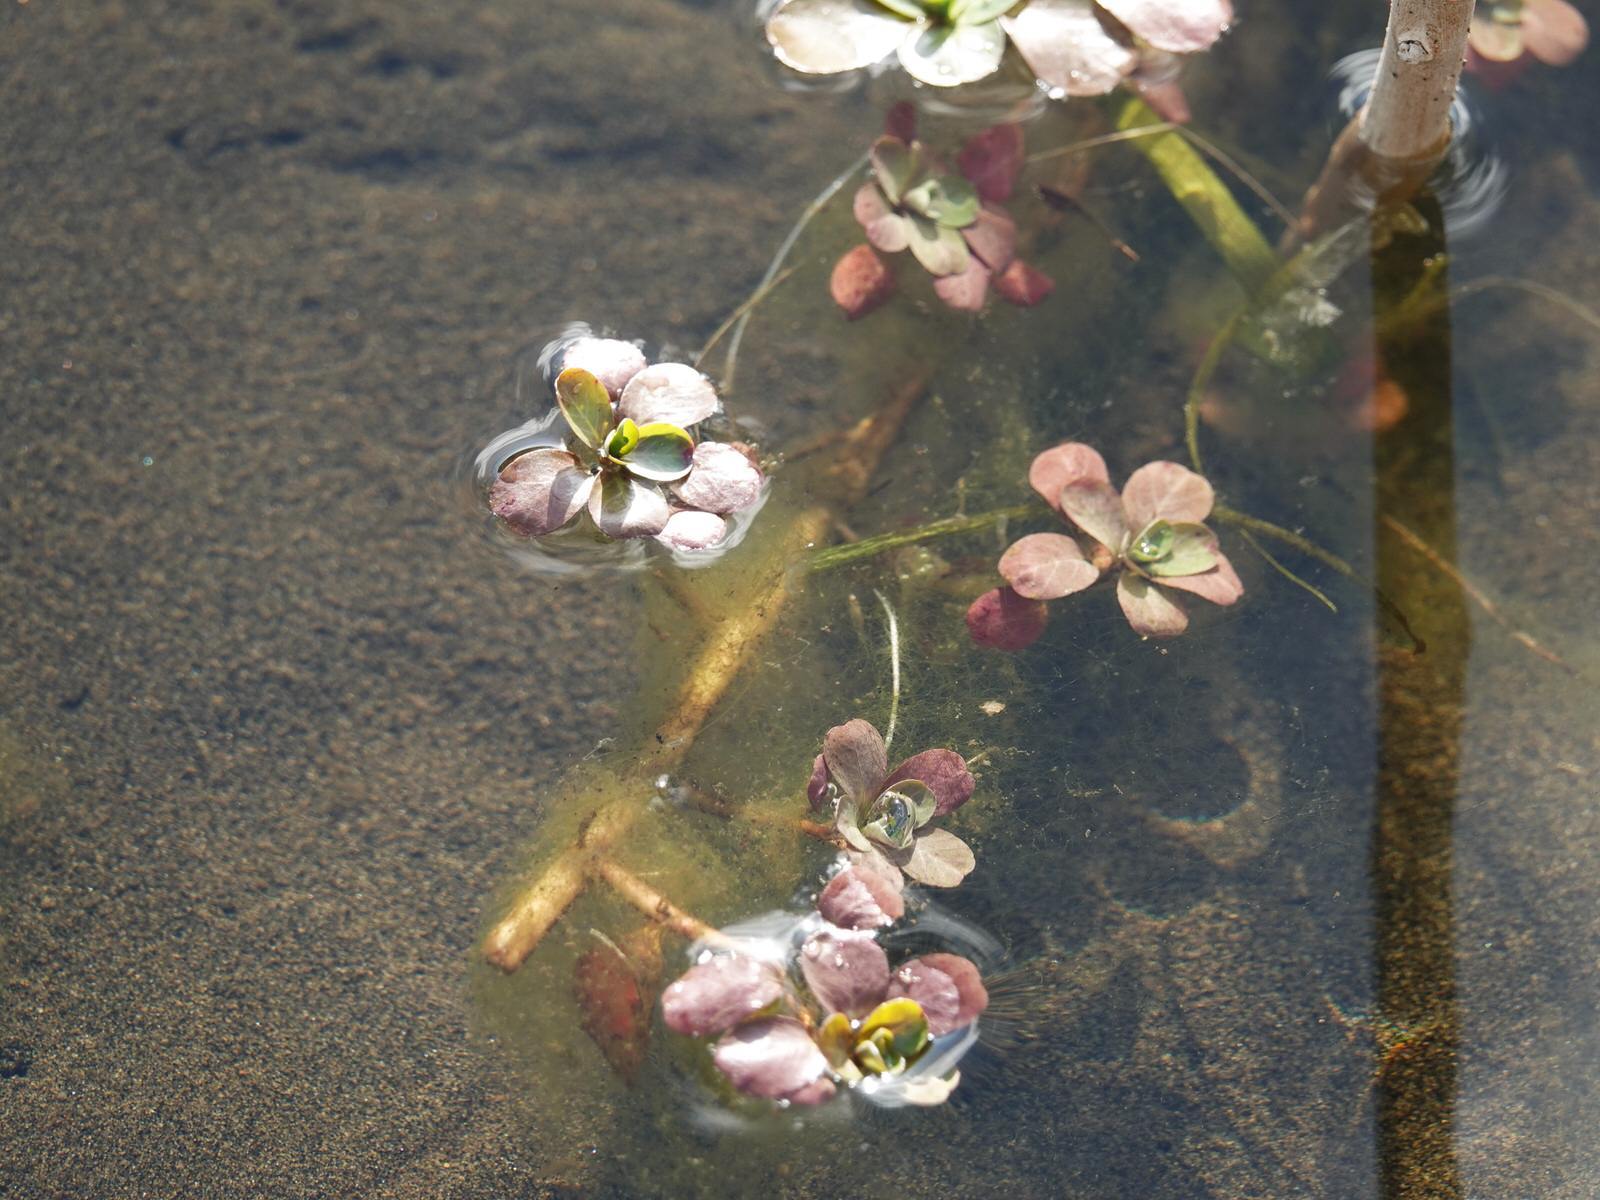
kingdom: Plantae
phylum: Tracheophyta
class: Magnoliopsida
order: Myrtales
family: Onagraceae
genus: Ludwigia
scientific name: Ludwigia peploides
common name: Floating primrose-willow
